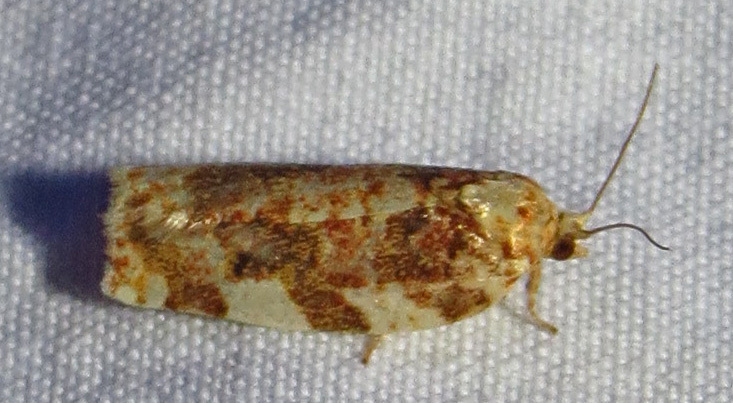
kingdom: Animalia
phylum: Arthropoda
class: Insecta
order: Lepidoptera
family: Tortricidae
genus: Archips
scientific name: Archips argyrospila
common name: Fruit-tree leafroller moth
